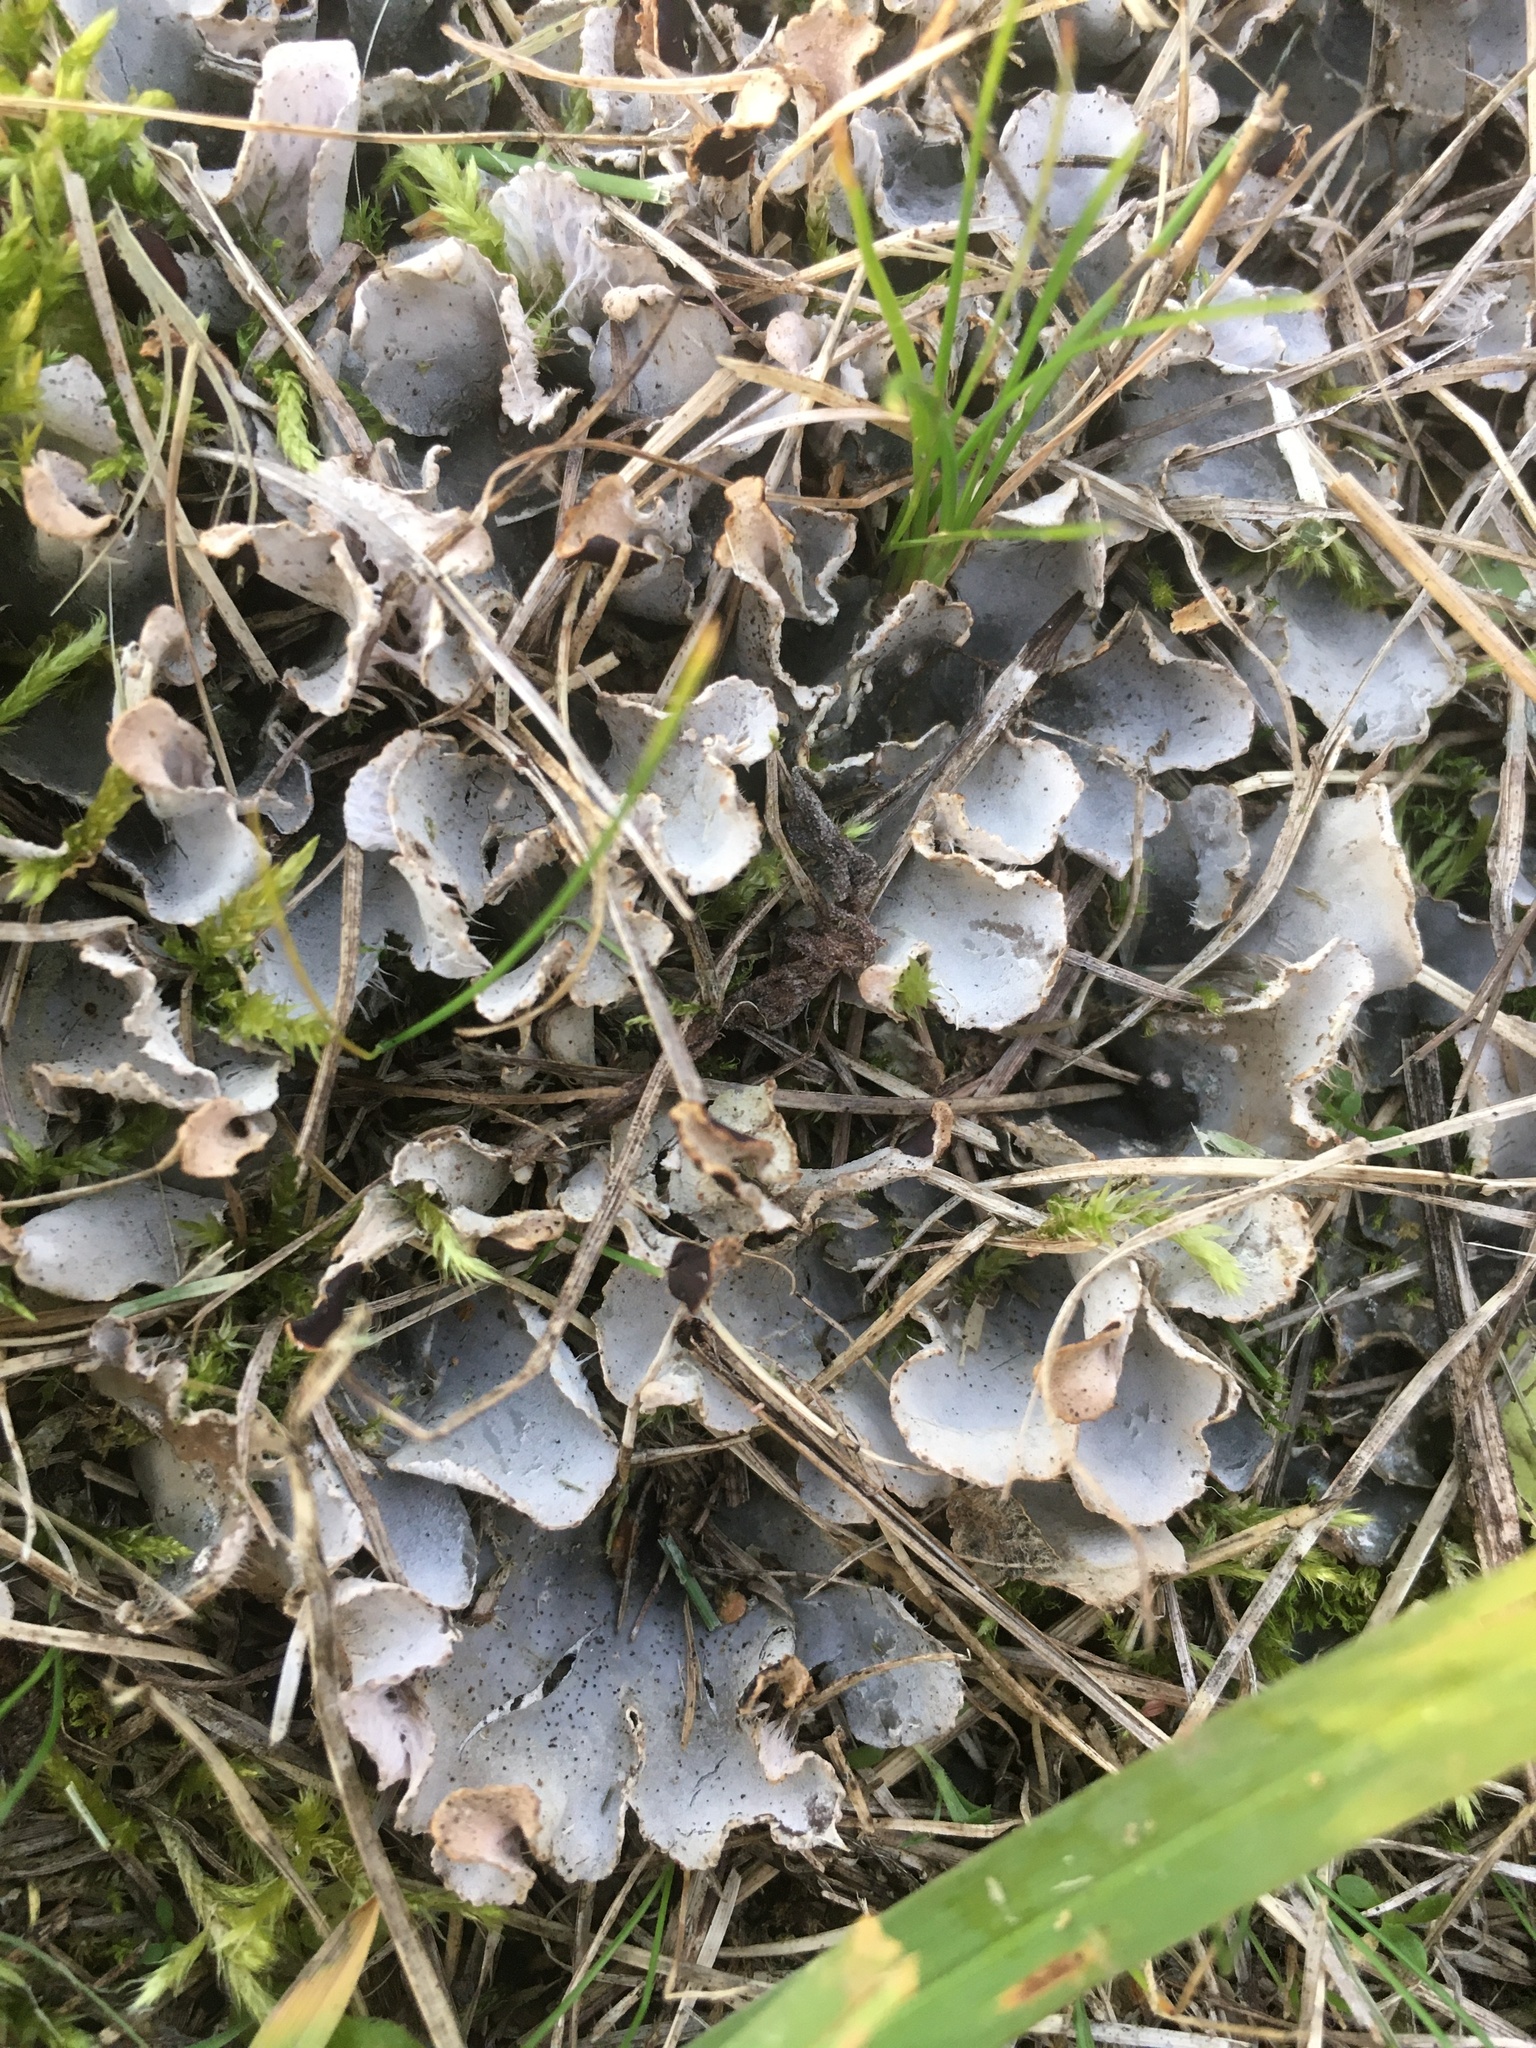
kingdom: Fungi
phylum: Ascomycota
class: Lecanoromycetes
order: Peltigerales
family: Peltigeraceae
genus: Peltigera
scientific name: Peltigera rufescens
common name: Field dog lichen
